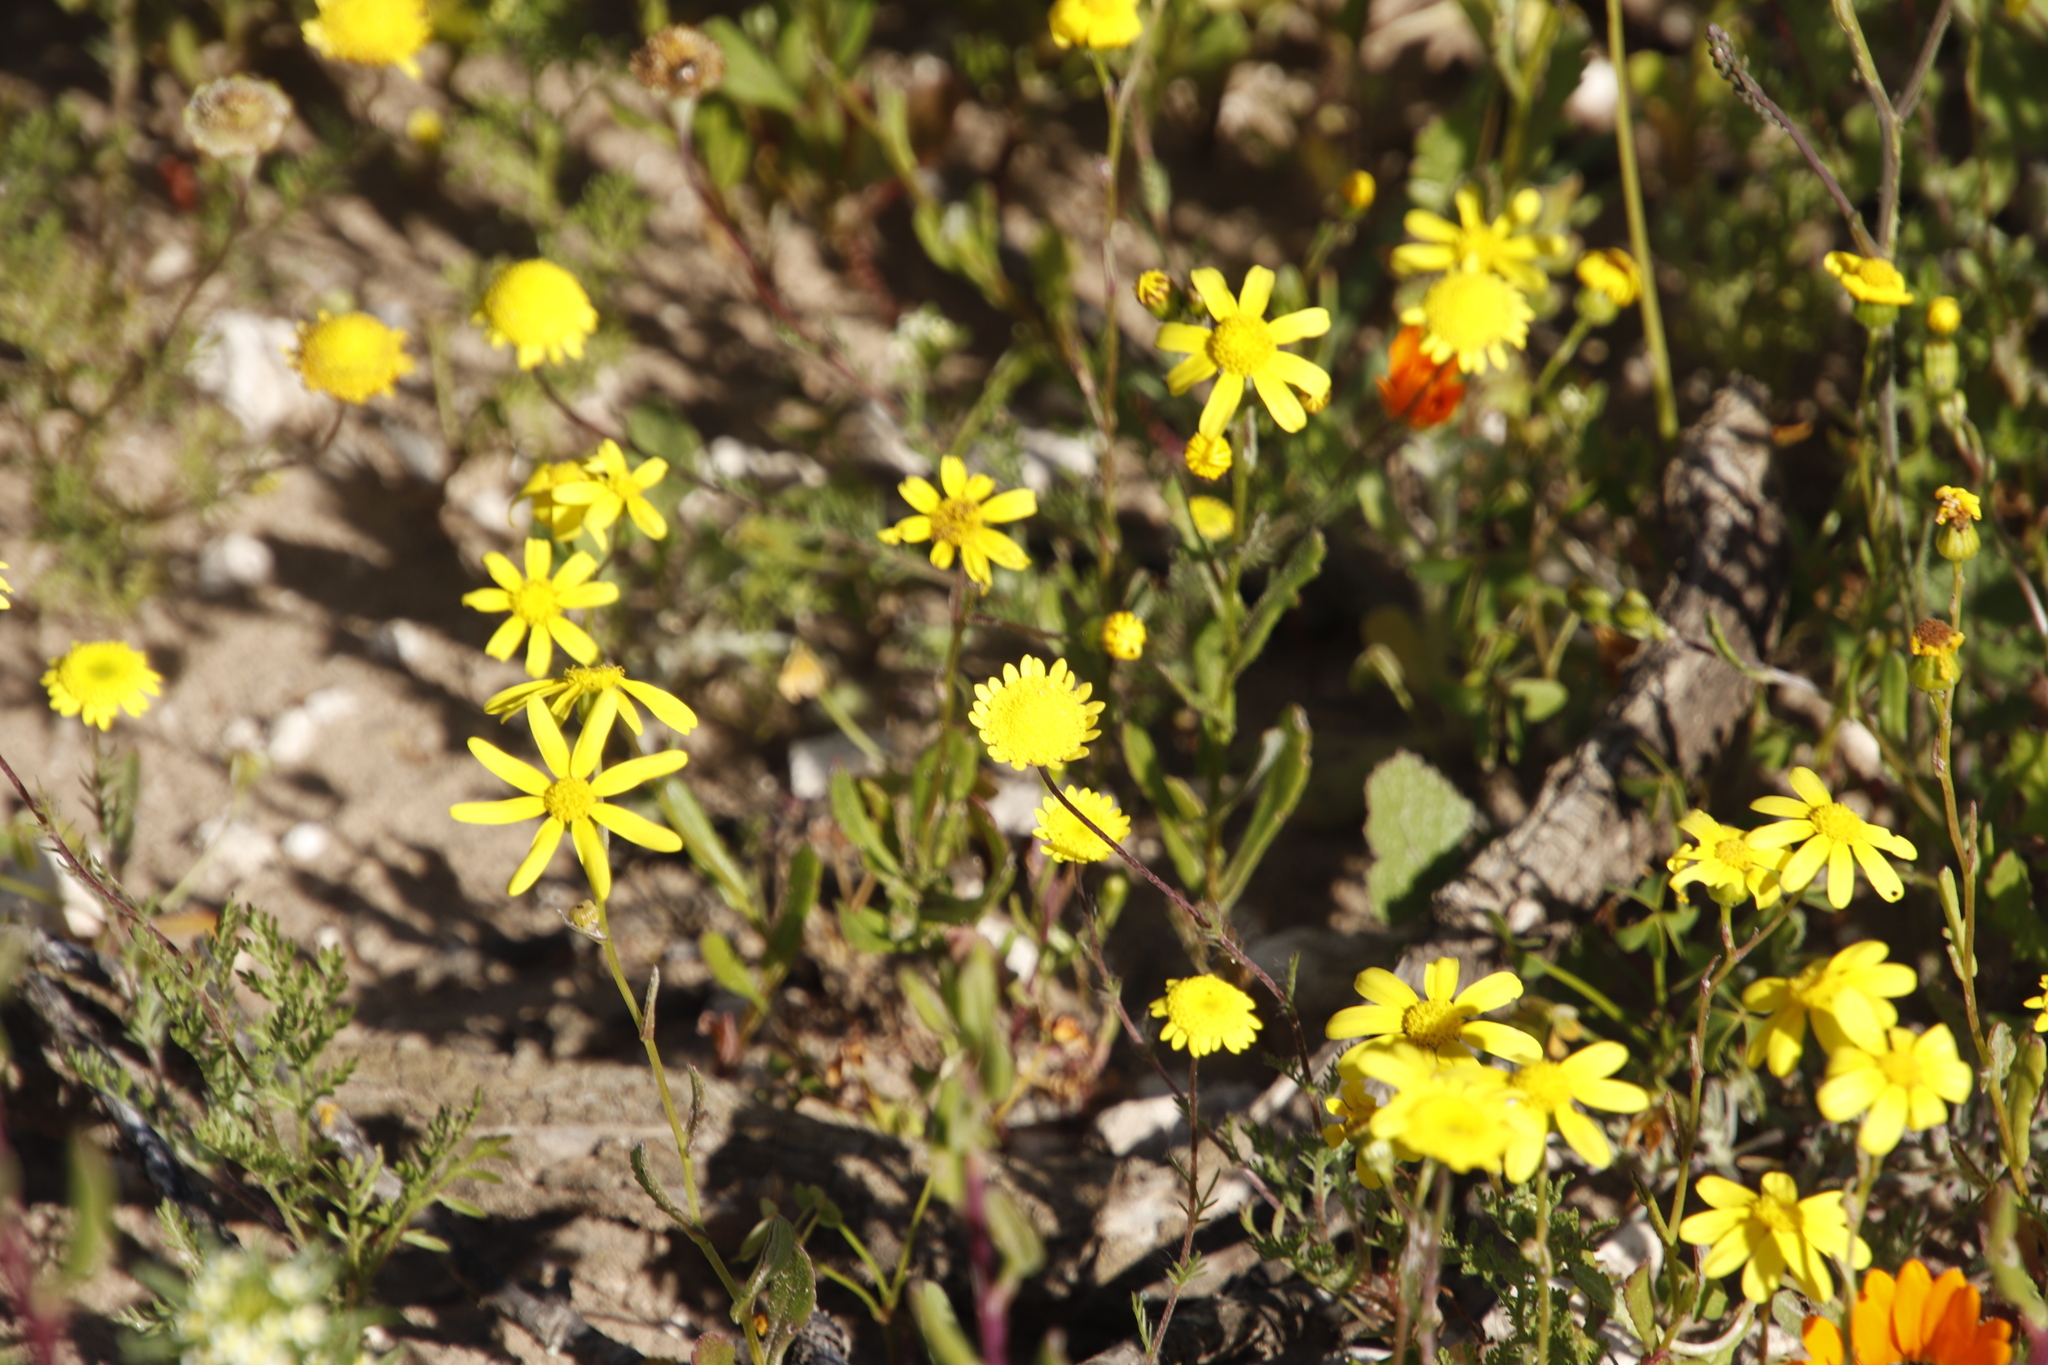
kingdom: Plantae
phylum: Tracheophyta
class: Magnoliopsida
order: Asterales
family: Asteraceae
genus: Cotula
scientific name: Cotula pruinosa
